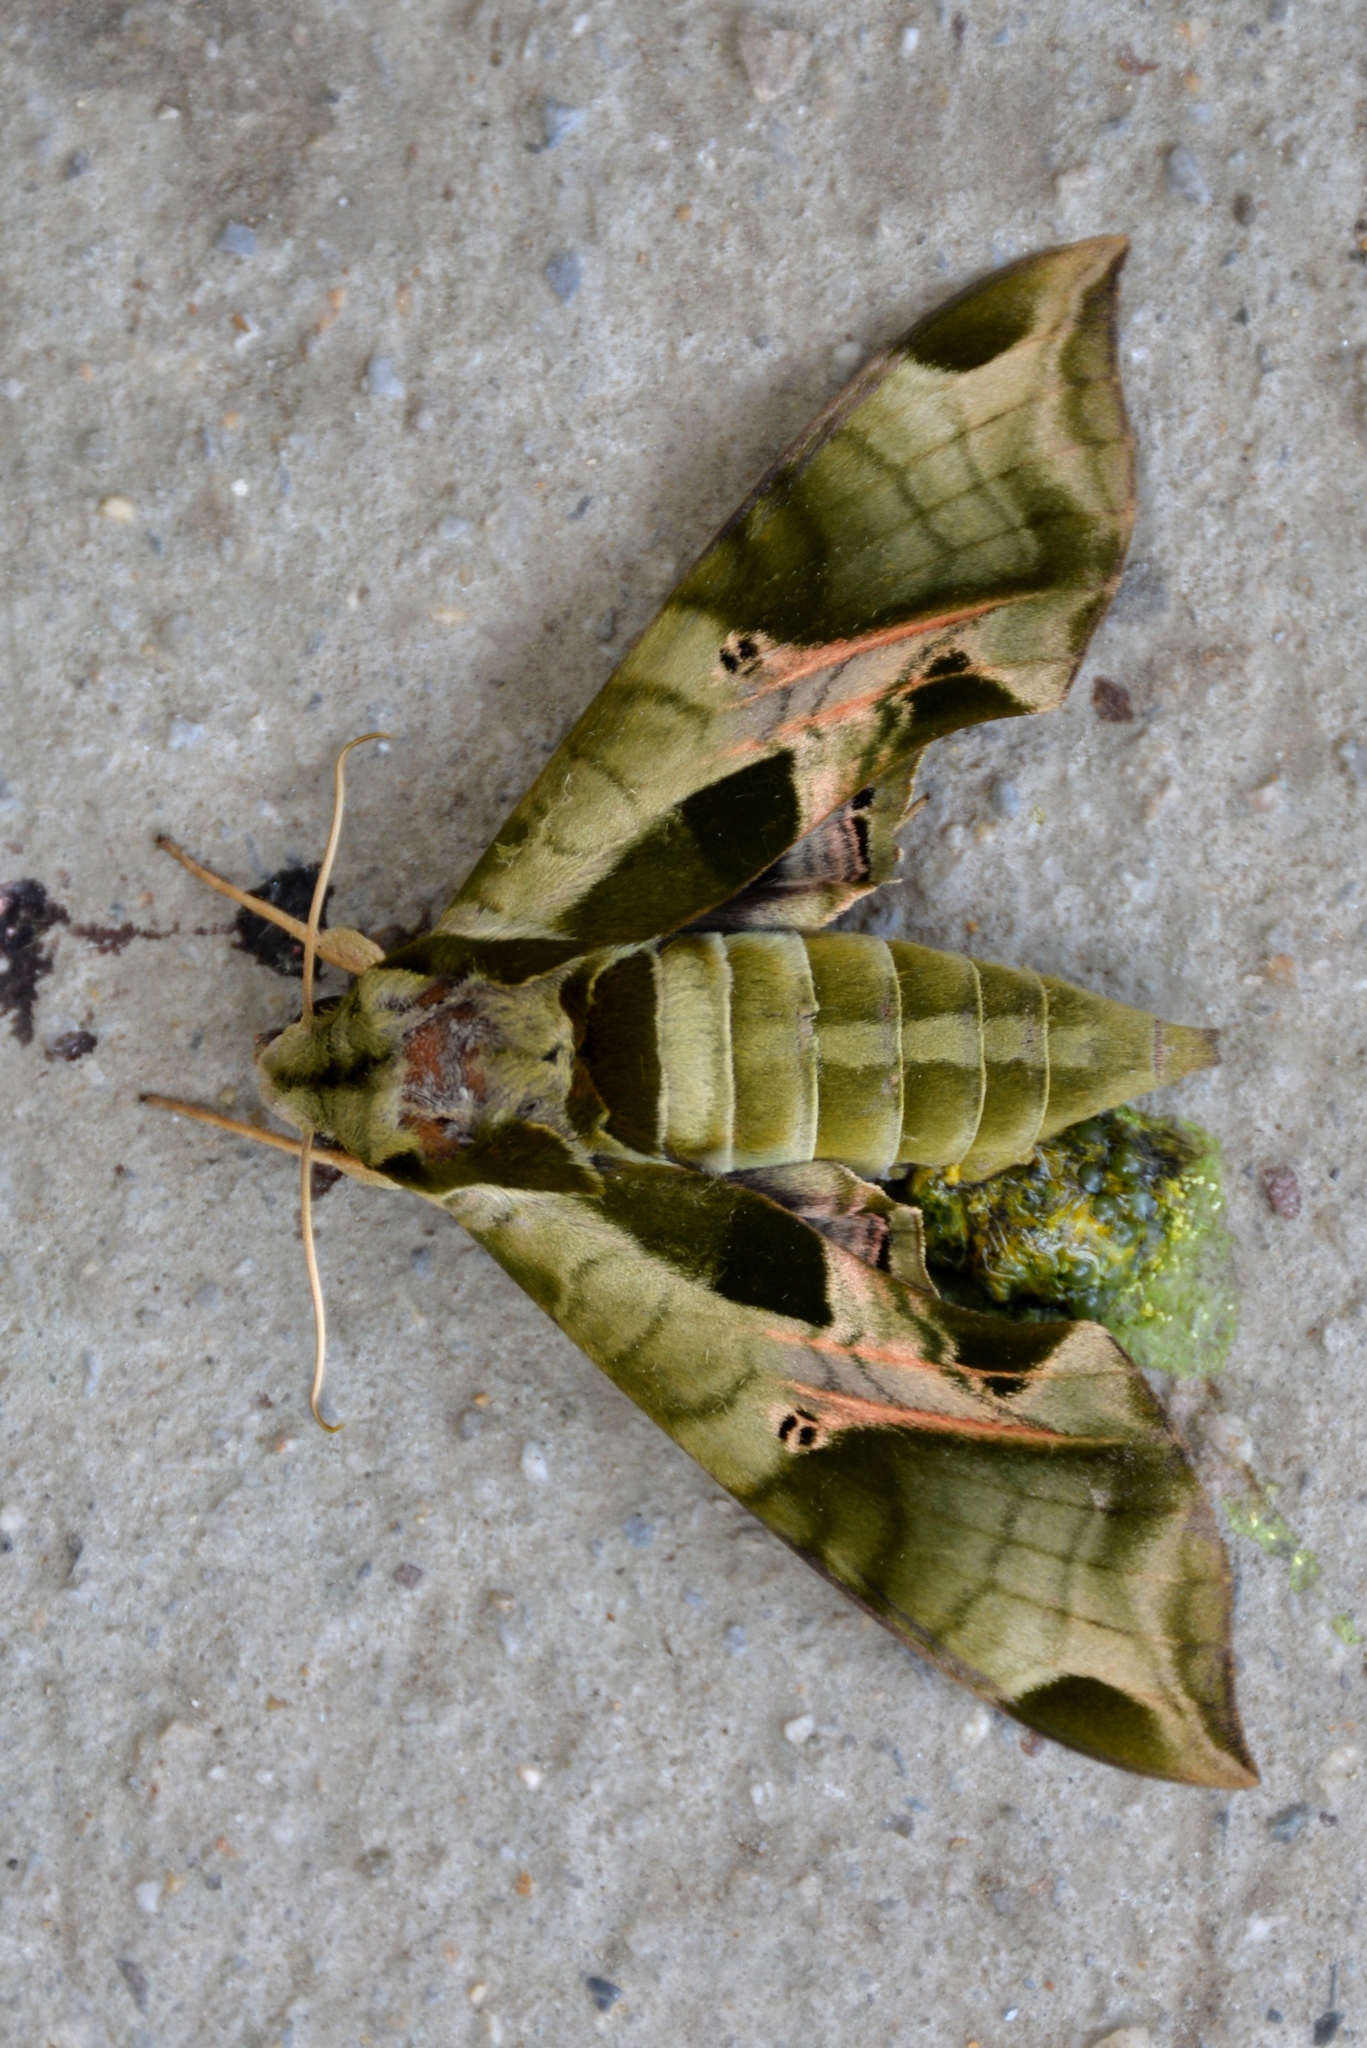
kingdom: Animalia
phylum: Arthropoda
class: Insecta
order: Lepidoptera
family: Sphingidae
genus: Eumorpha
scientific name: Eumorpha pandorus
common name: Pandora sphinx
